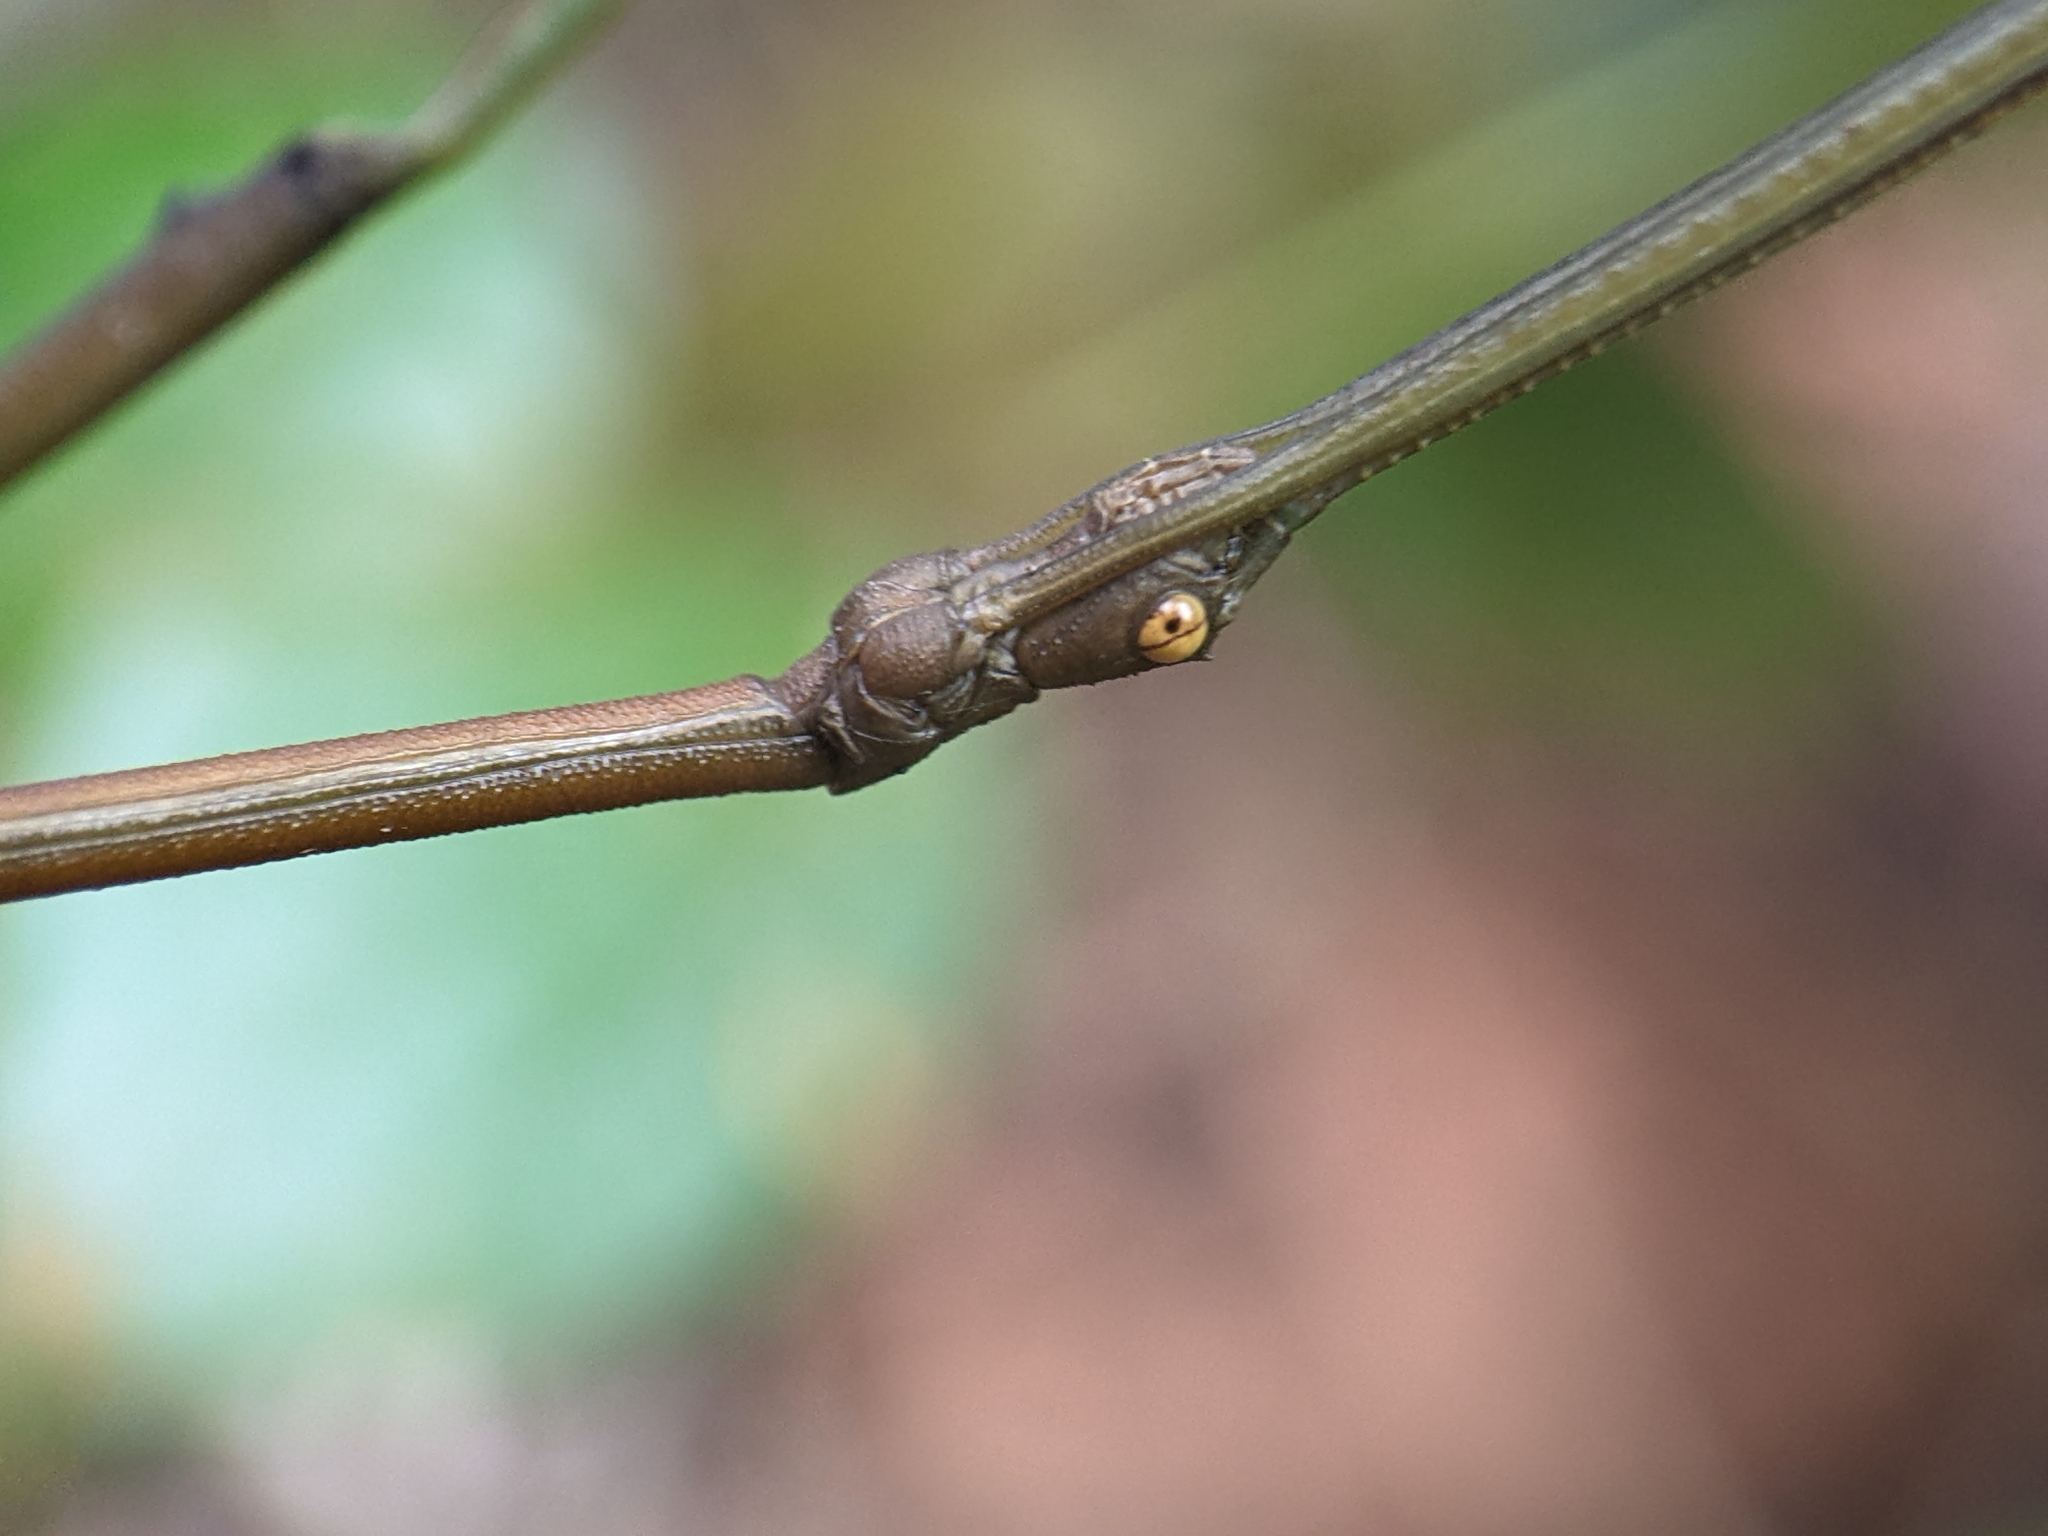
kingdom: Animalia
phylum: Arthropoda
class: Insecta
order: Phasmida
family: Lonchodidae
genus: Lonchodes
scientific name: Lonchodes brevipes
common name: Gray's malayan stick insect
